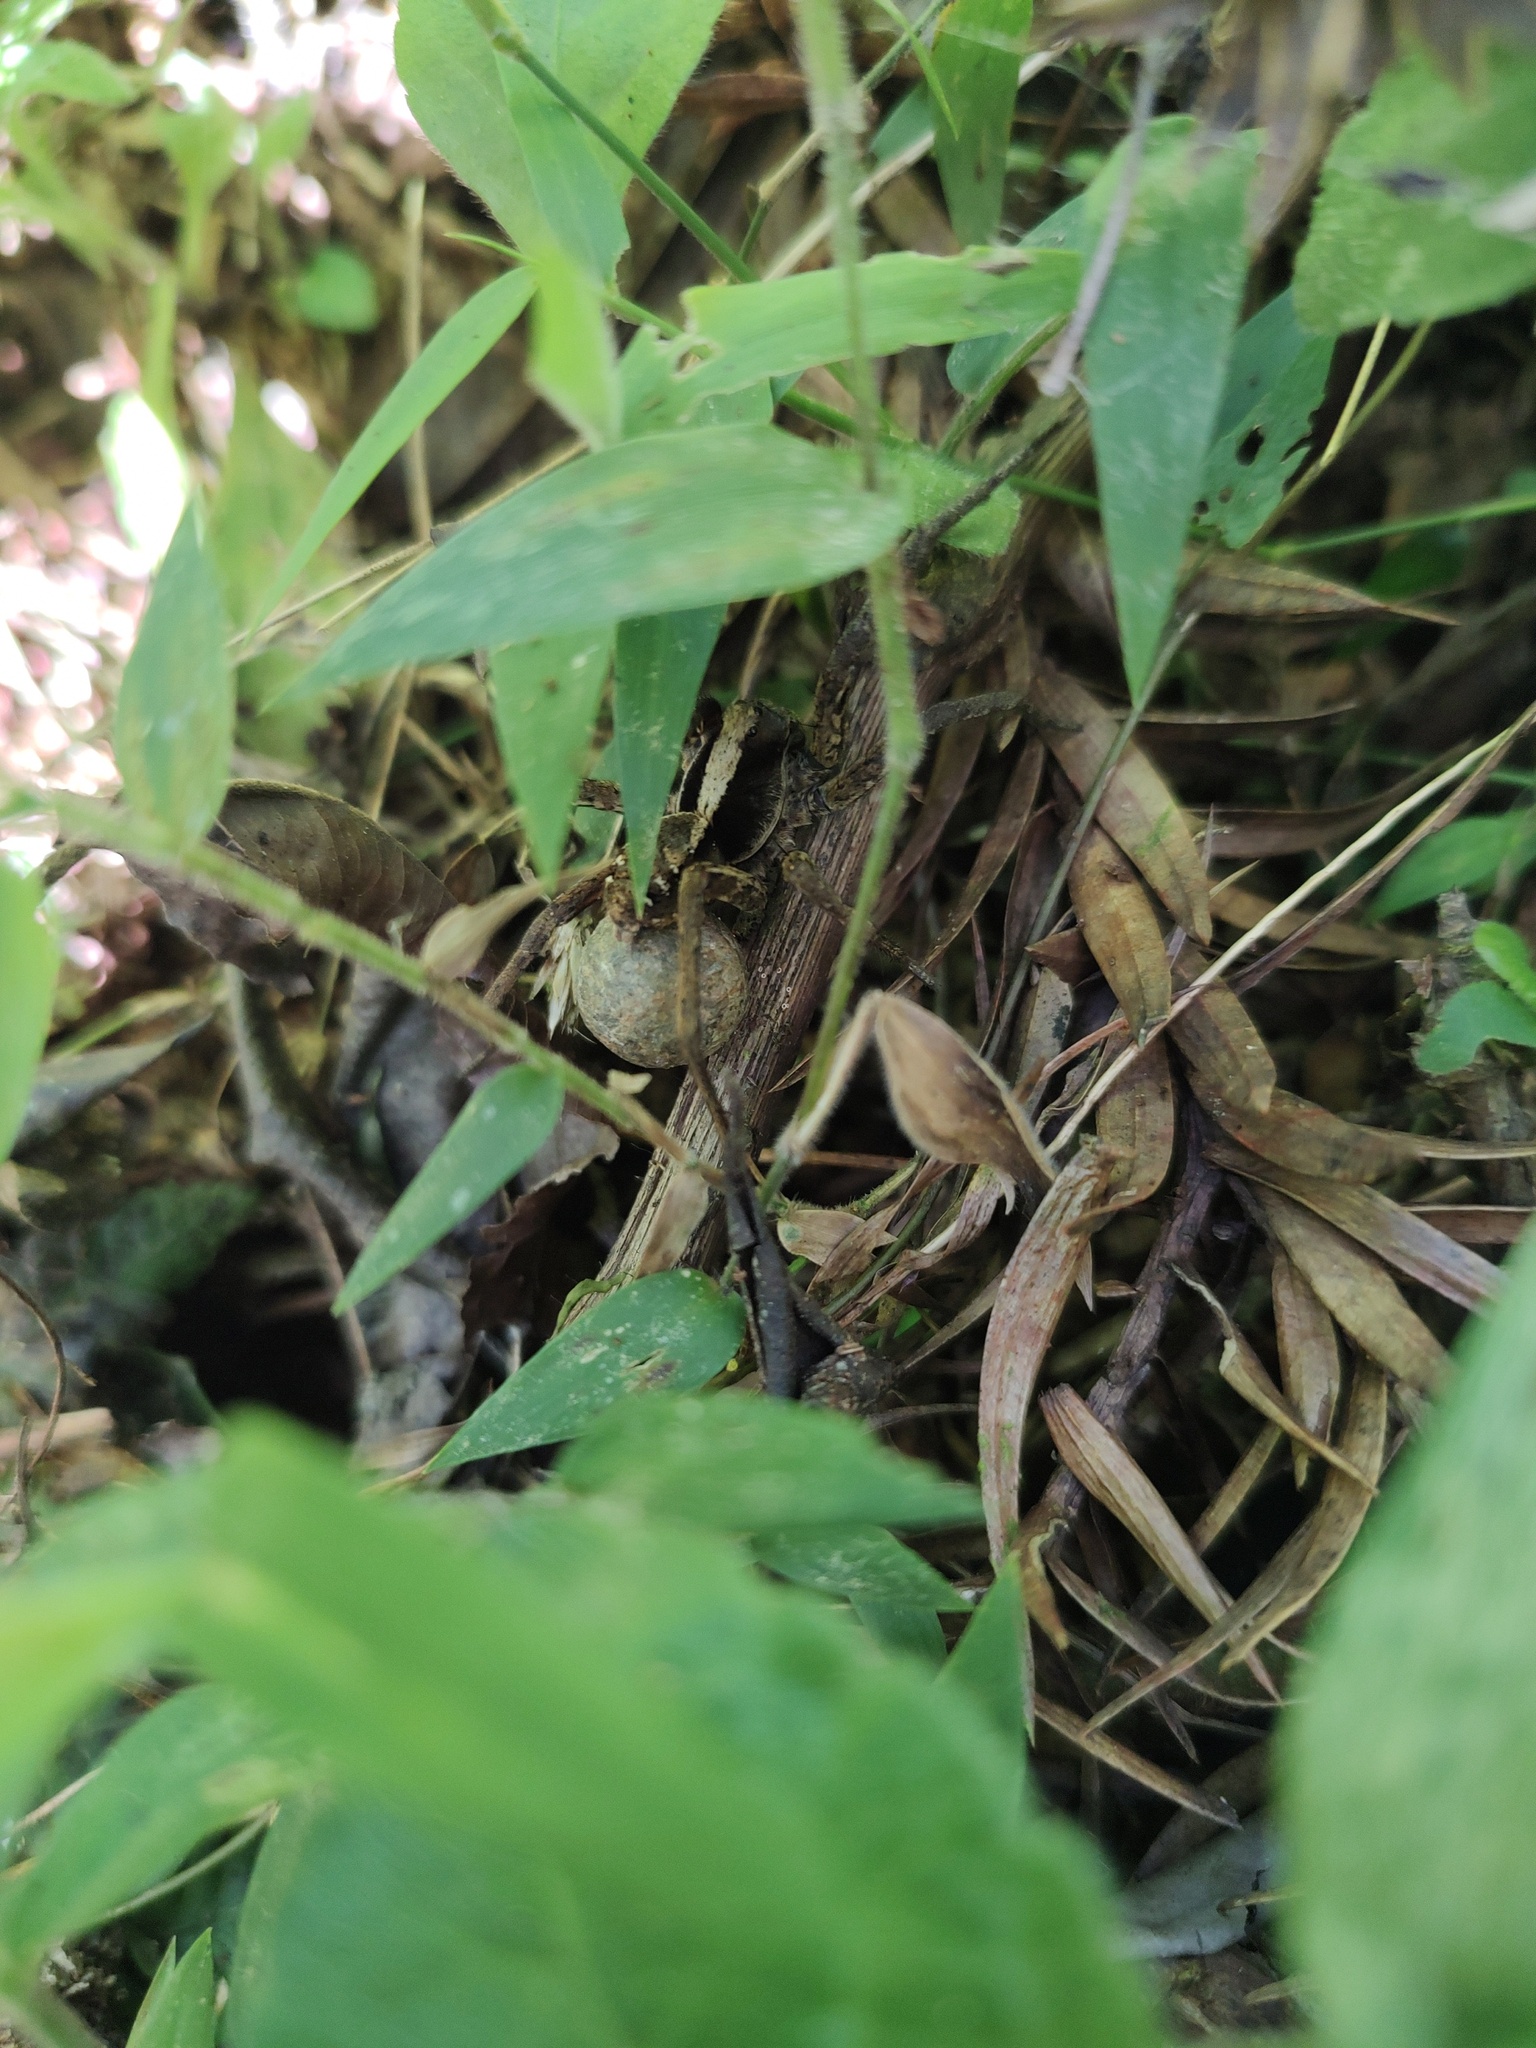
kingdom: Animalia
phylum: Arthropoda
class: Arachnida
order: Araneae
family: Lycosidae
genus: Hogna
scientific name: Hogna gumia
